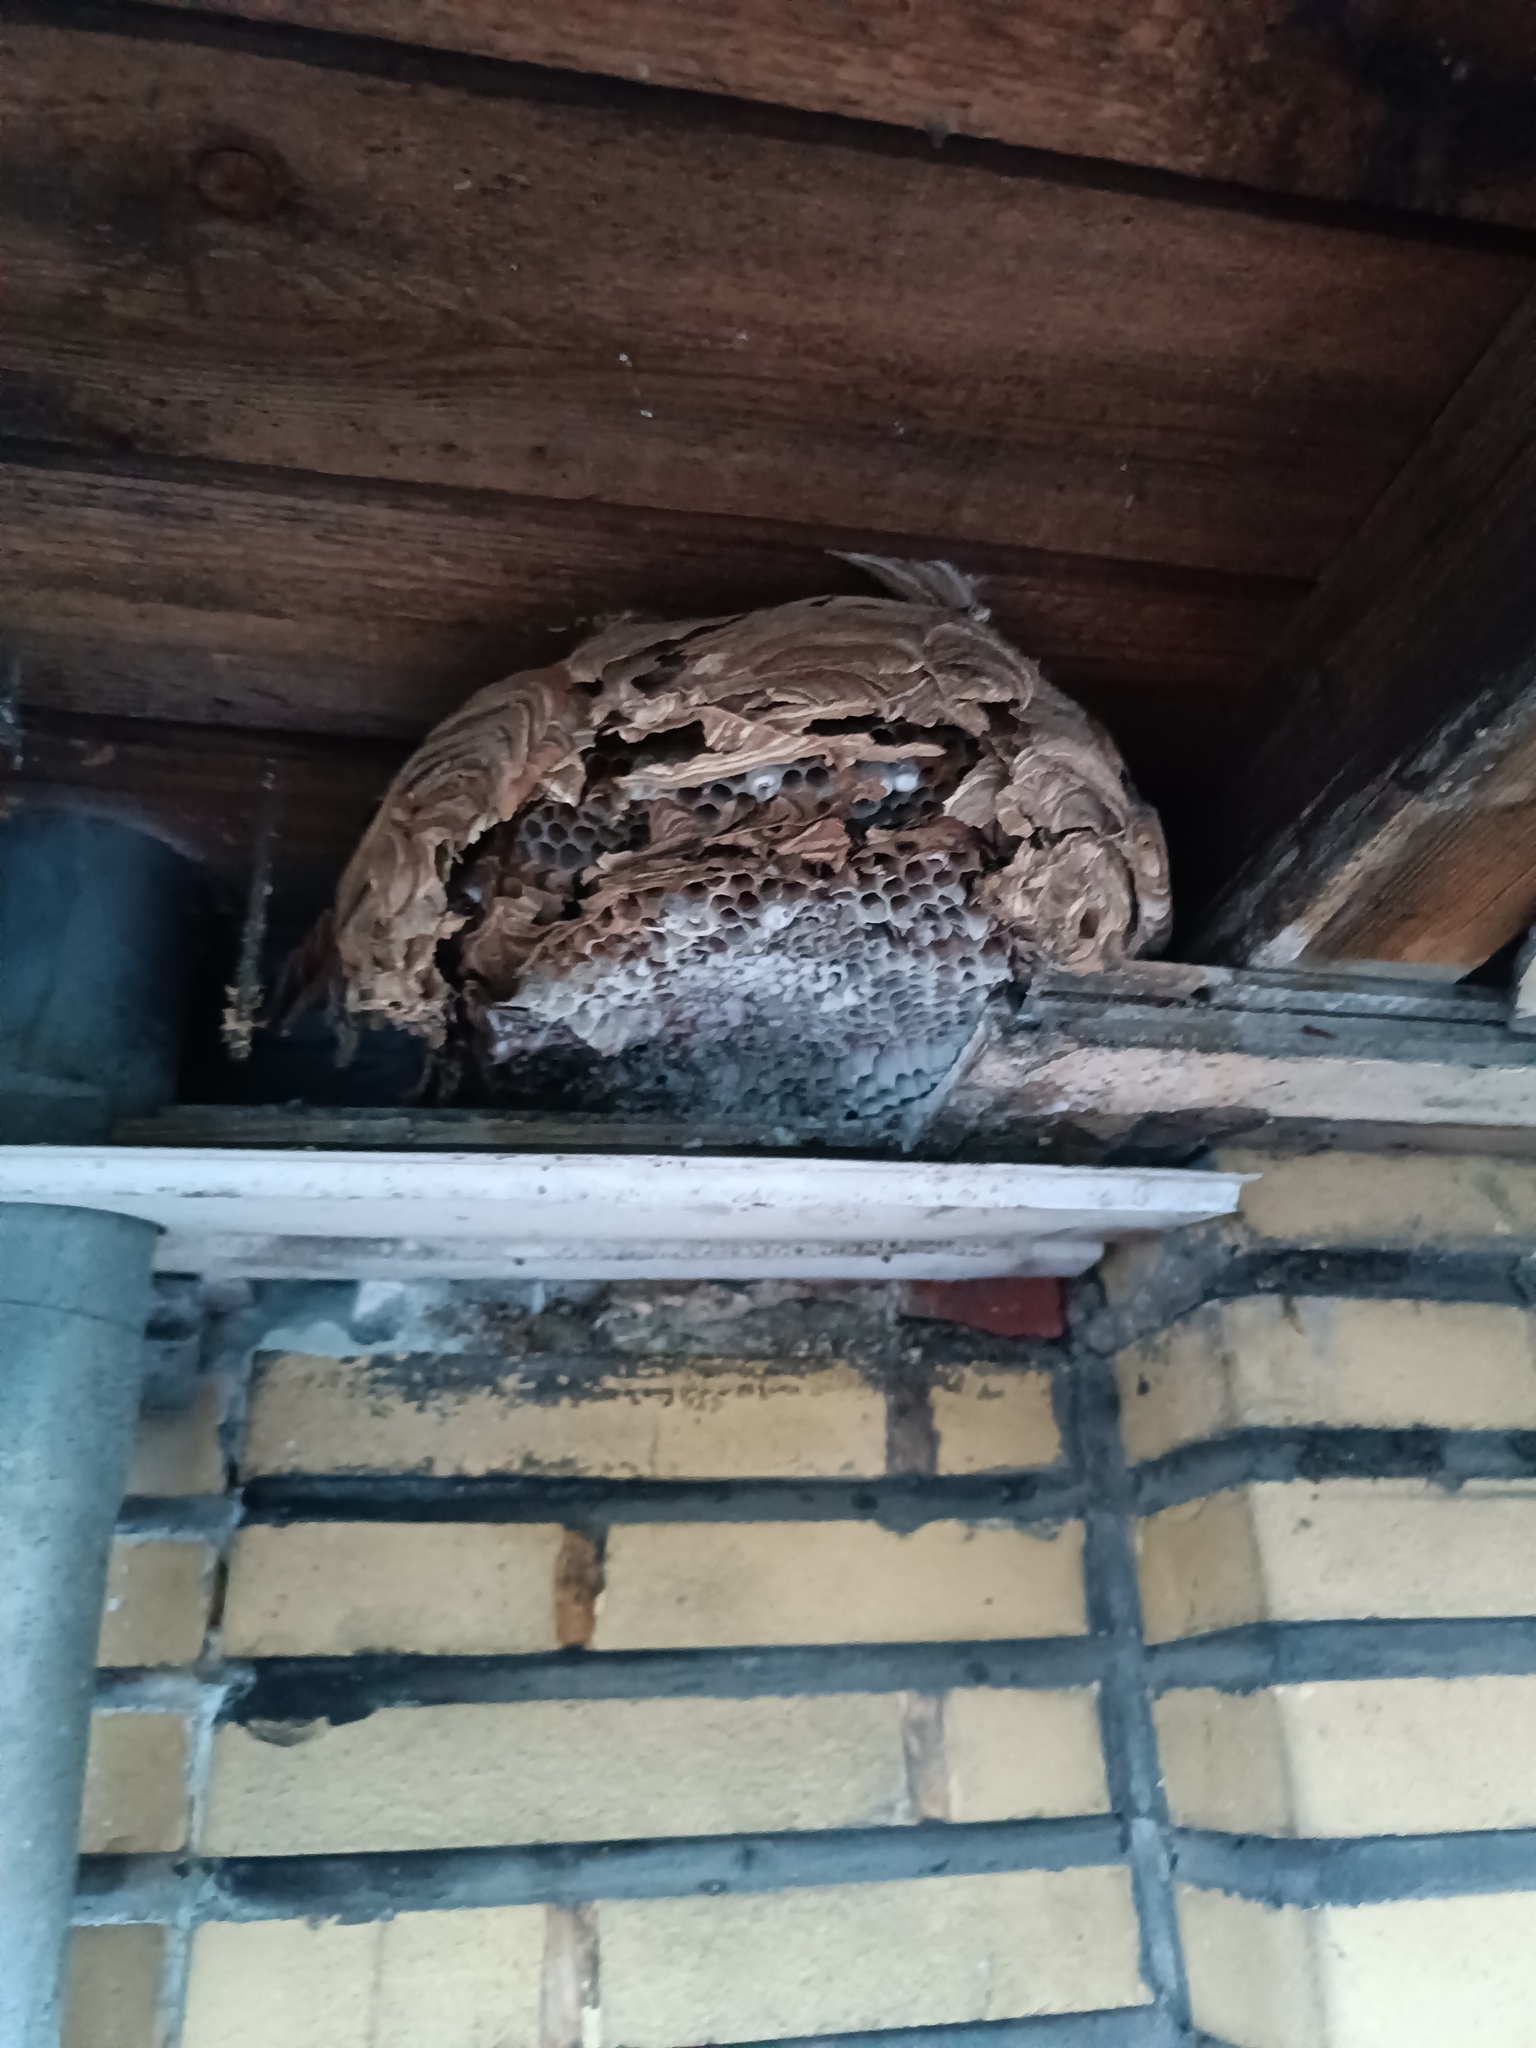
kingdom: Animalia
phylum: Arthropoda
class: Insecta
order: Hymenoptera
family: Vespidae
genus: Vespa
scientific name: Vespa velutina
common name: Asian hornet
